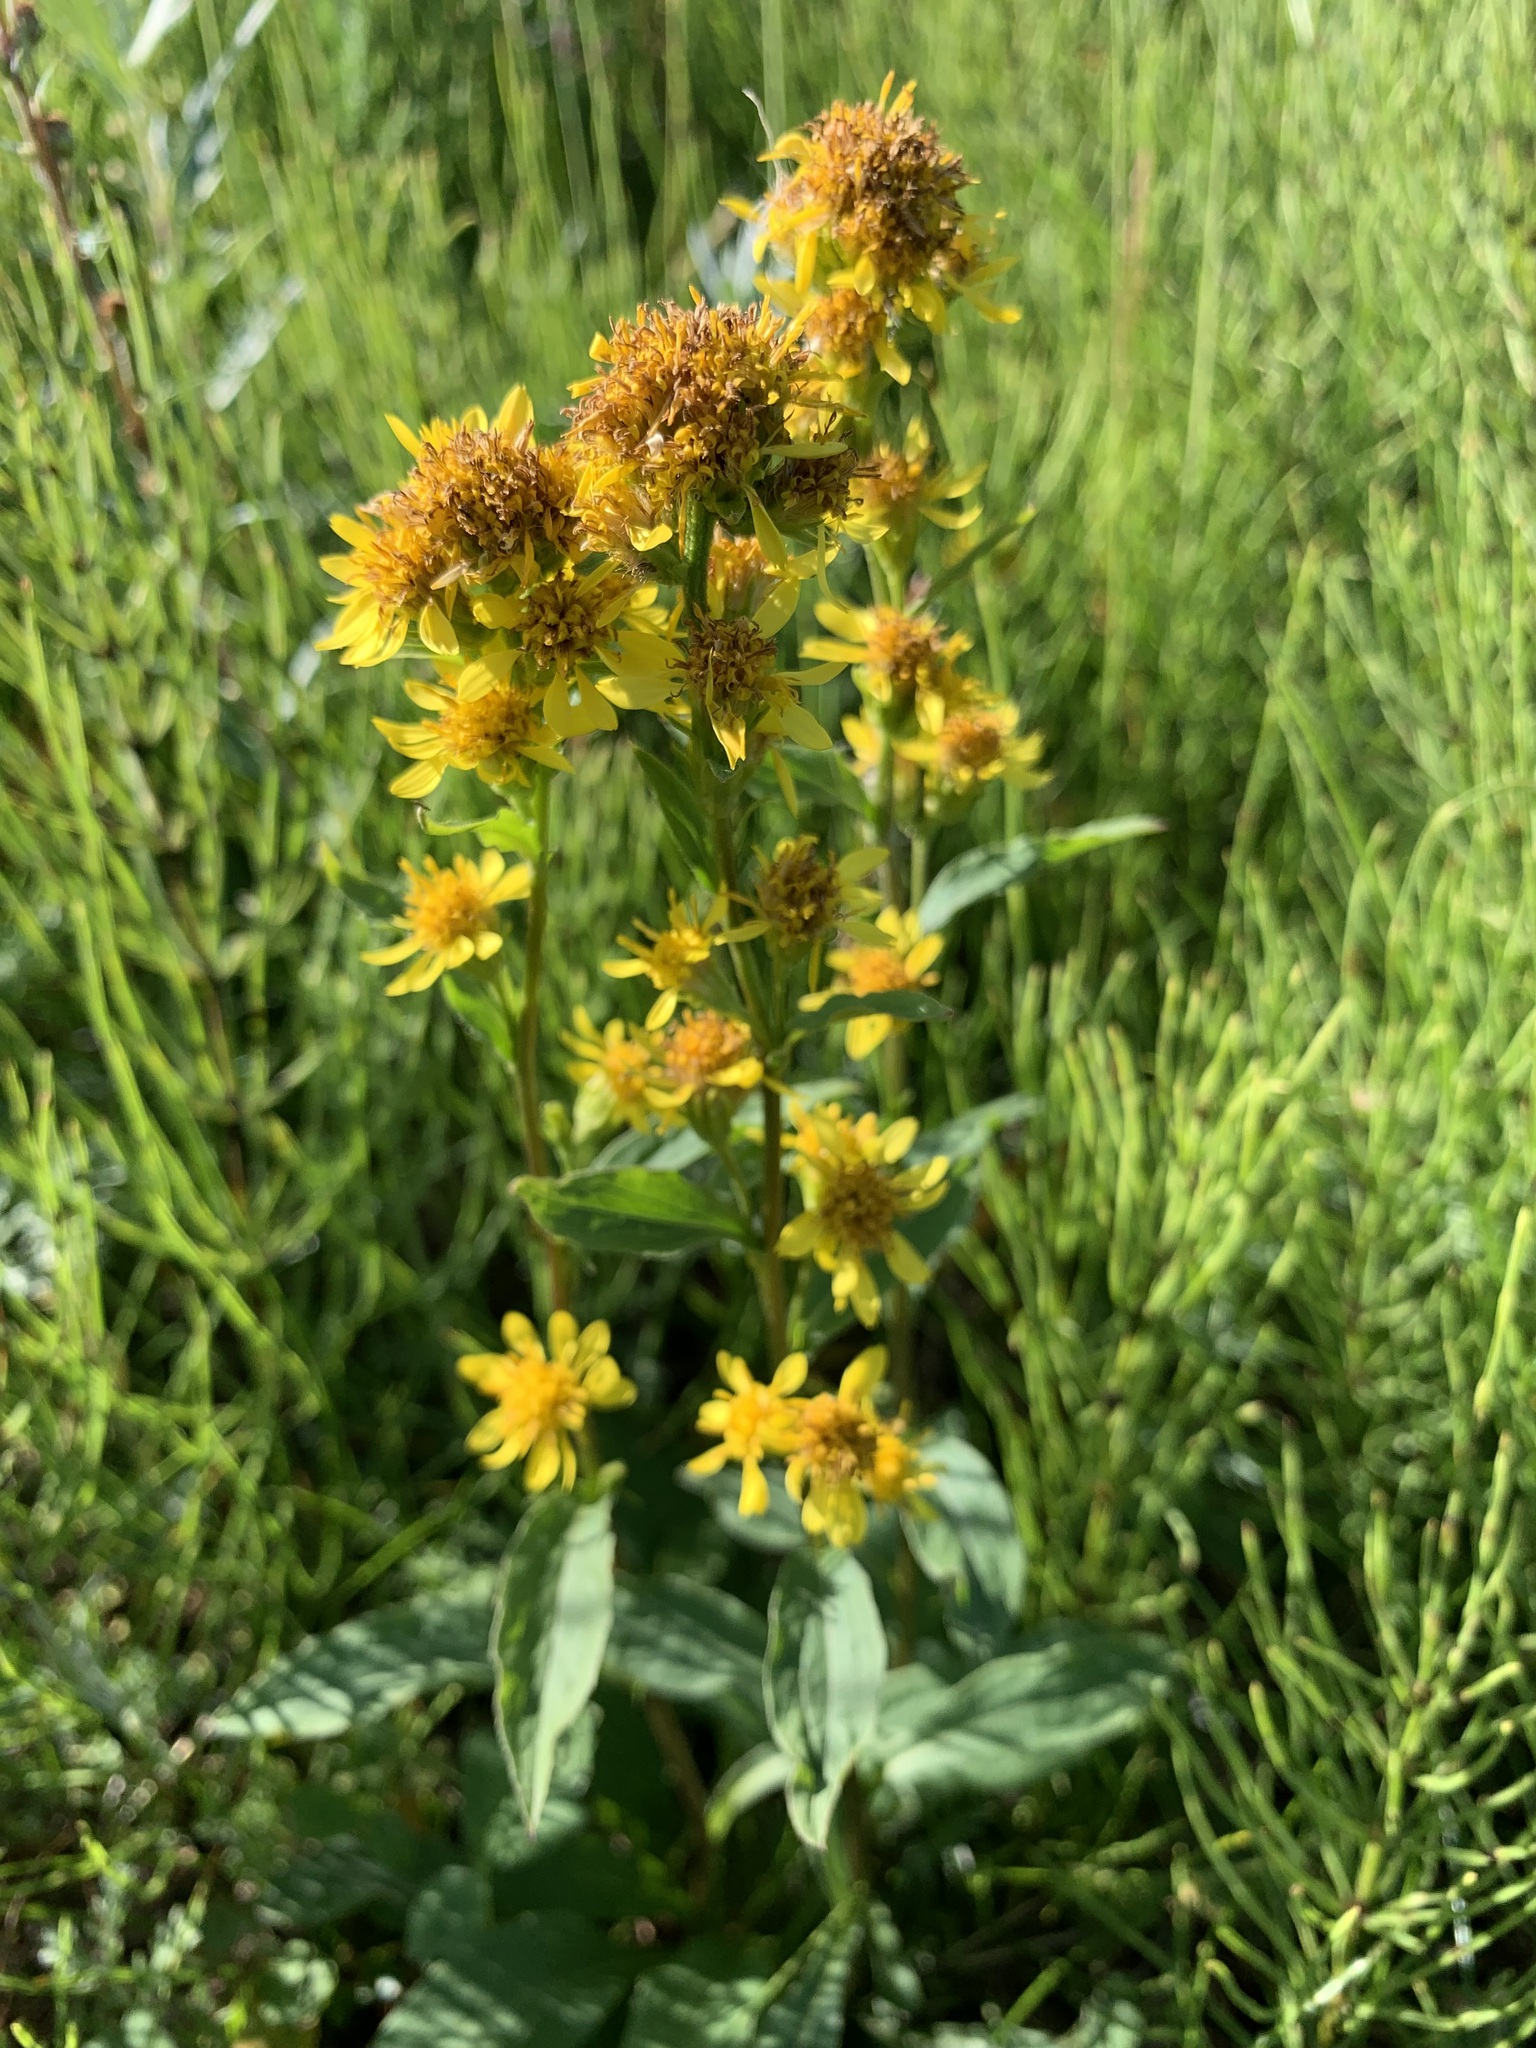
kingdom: Plantae
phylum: Tracheophyta
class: Magnoliopsida
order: Asterales
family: Asteraceae
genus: Solidago
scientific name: Solidago virgaurea
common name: Goldenrod
